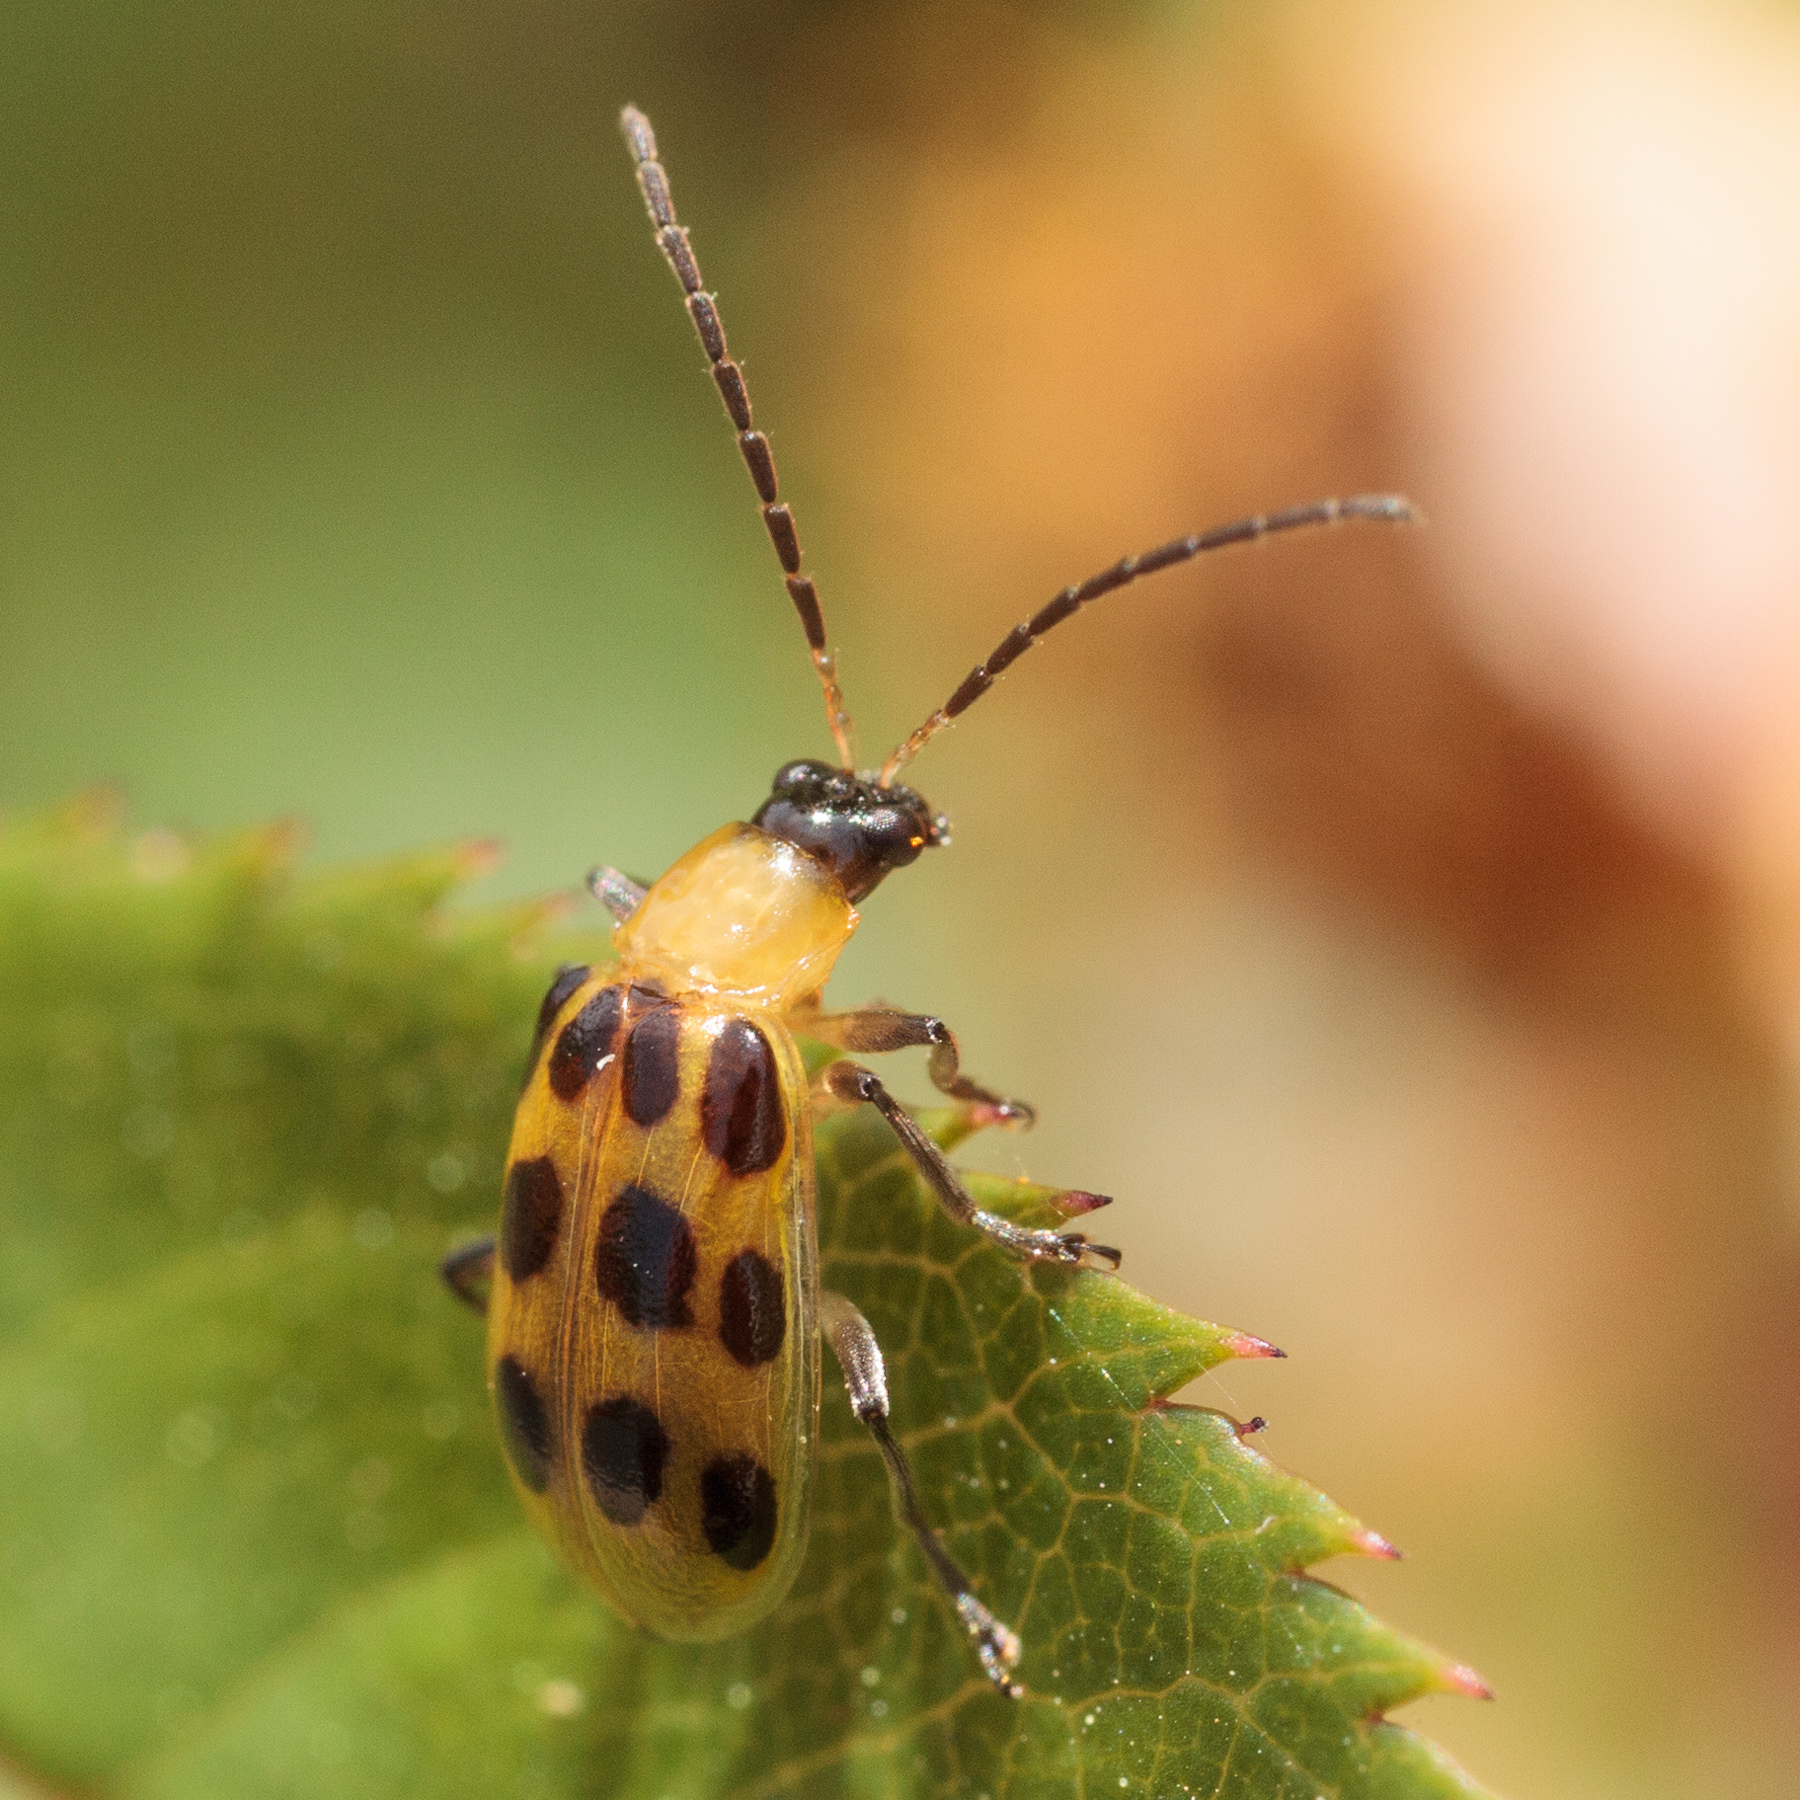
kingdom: Animalia
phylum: Arthropoda
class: Insecta
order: Coleoptera
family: Chrysomelidae
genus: Diabrotica
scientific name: Diabrotica undecimpunctata
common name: Spotted cucumber beetle
